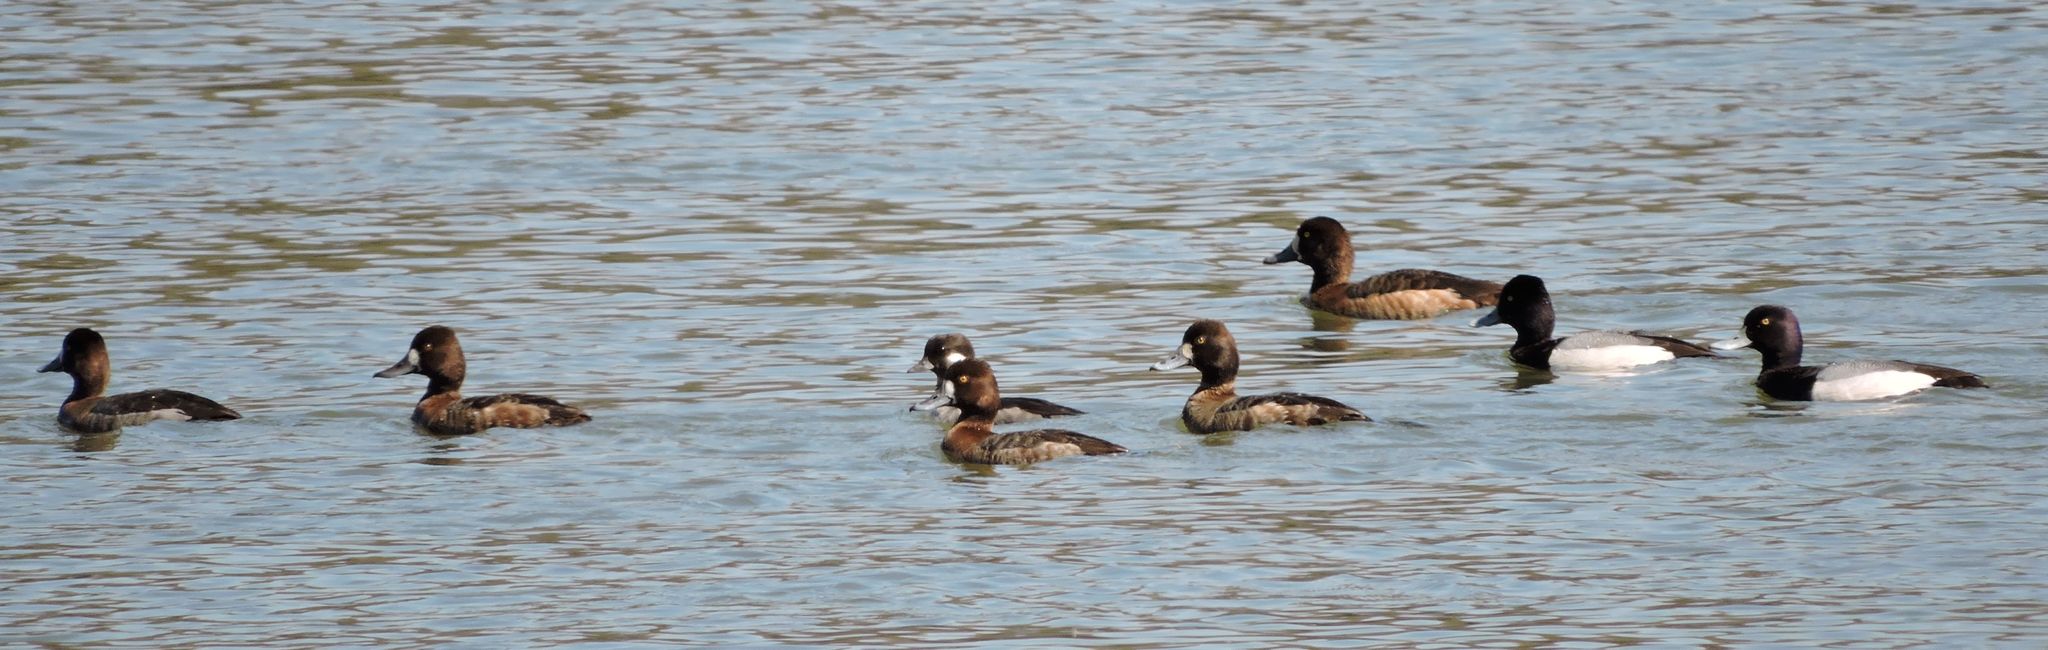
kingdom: Animalia
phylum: Chordata
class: Aves
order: Anseriformes
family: Anatidae
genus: Aythya
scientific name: Aythya
